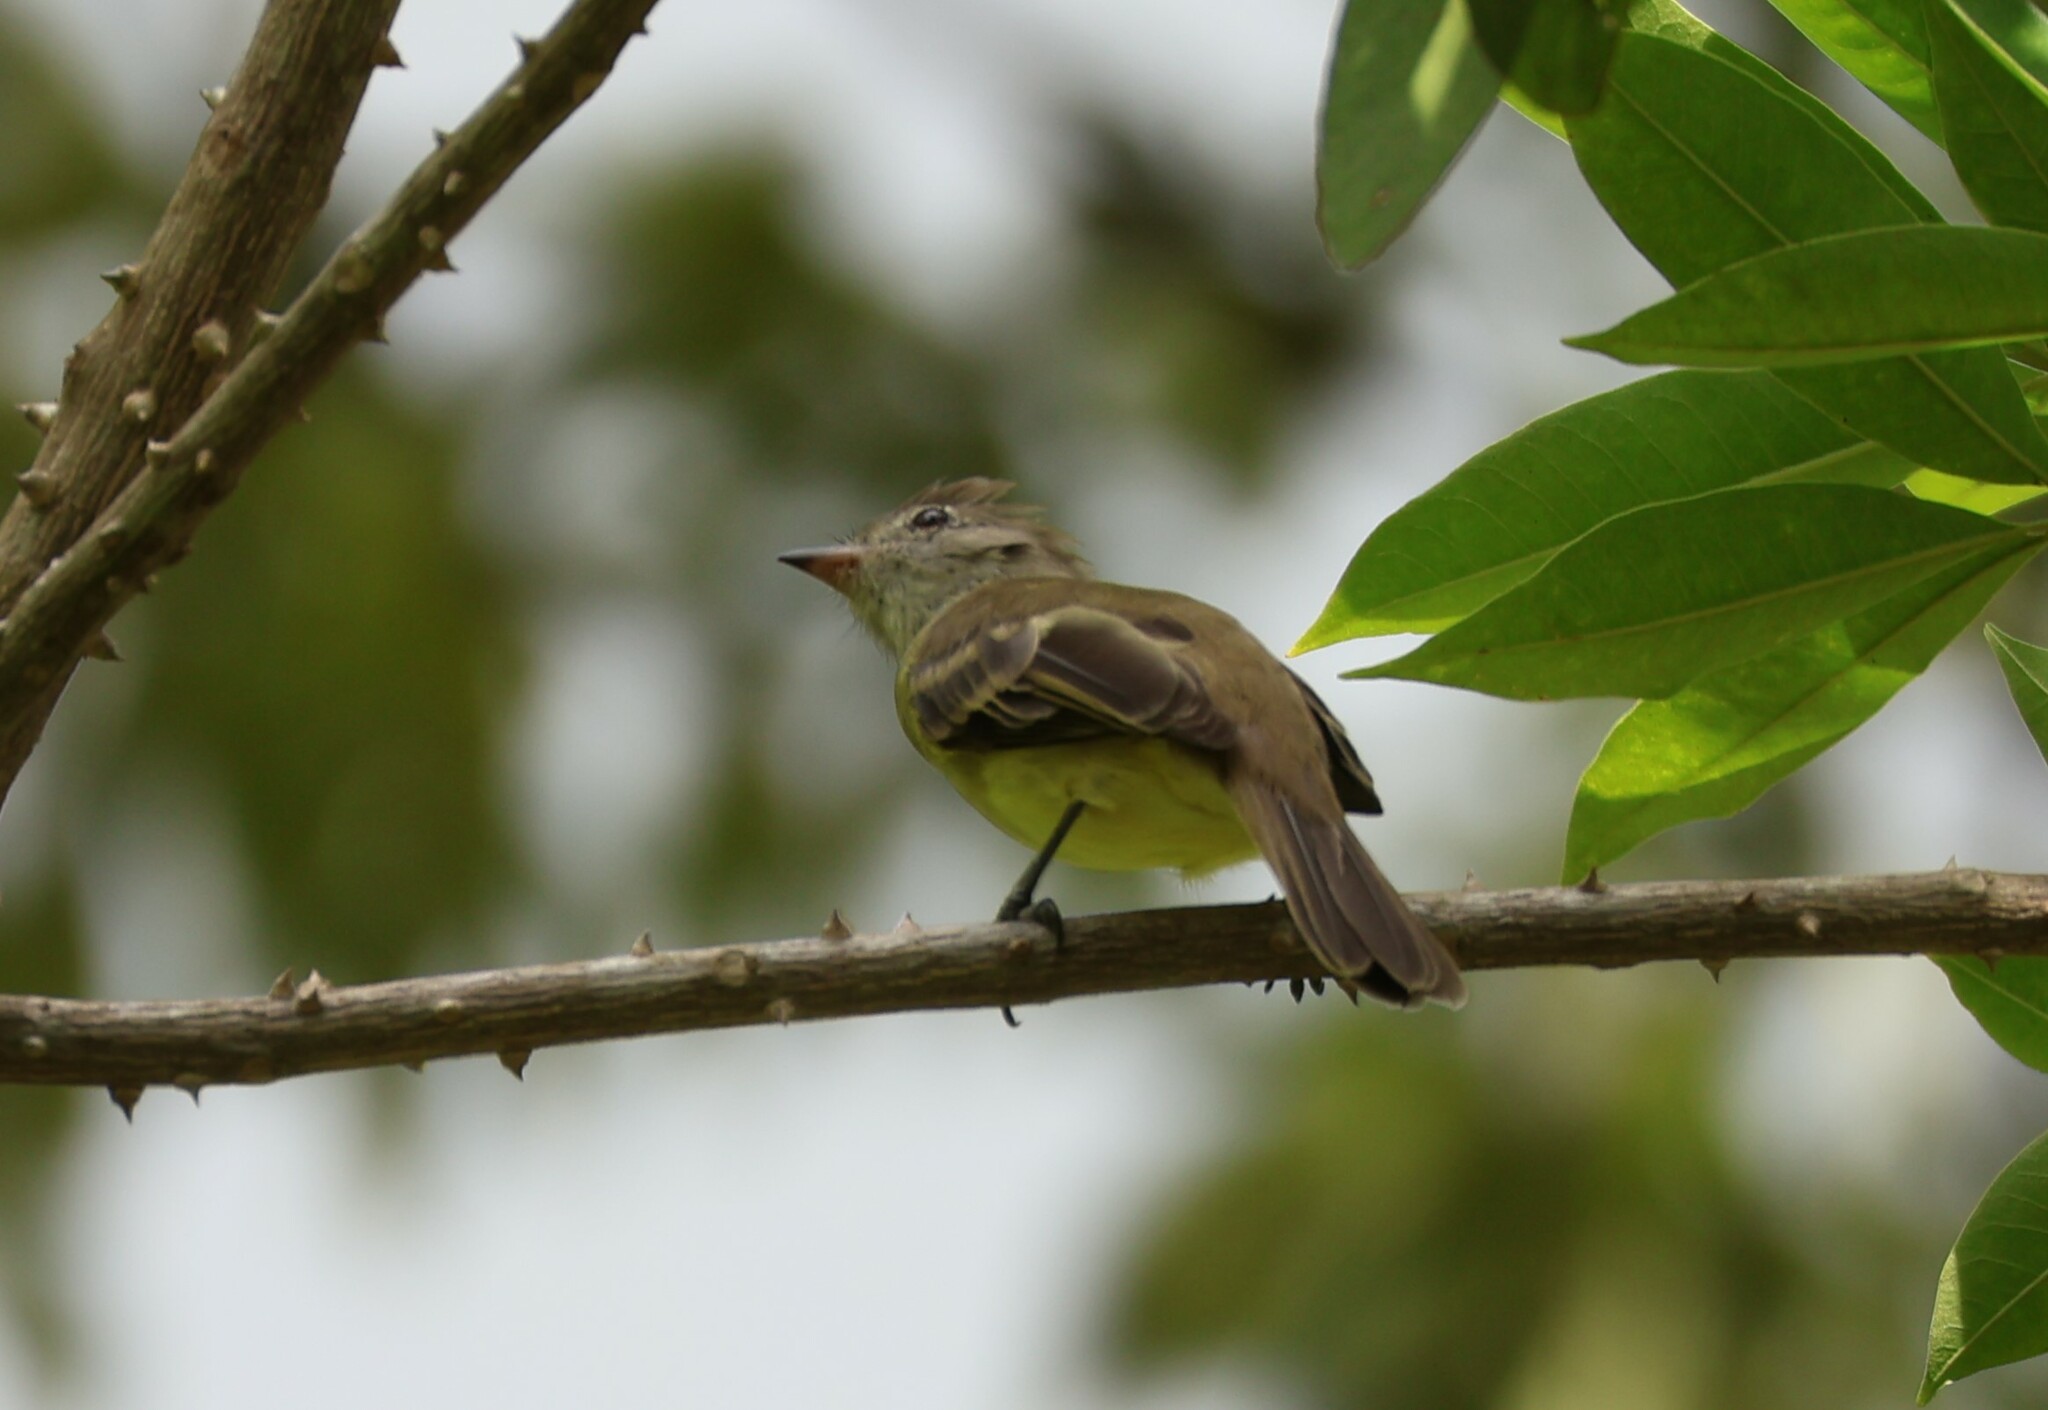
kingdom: Animalia
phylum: Chordata
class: Aves
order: Passeriformes
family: Tyrannidae
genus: Elaenia
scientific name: Elaenia flavogaster
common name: Yellow-bellied elaenia
